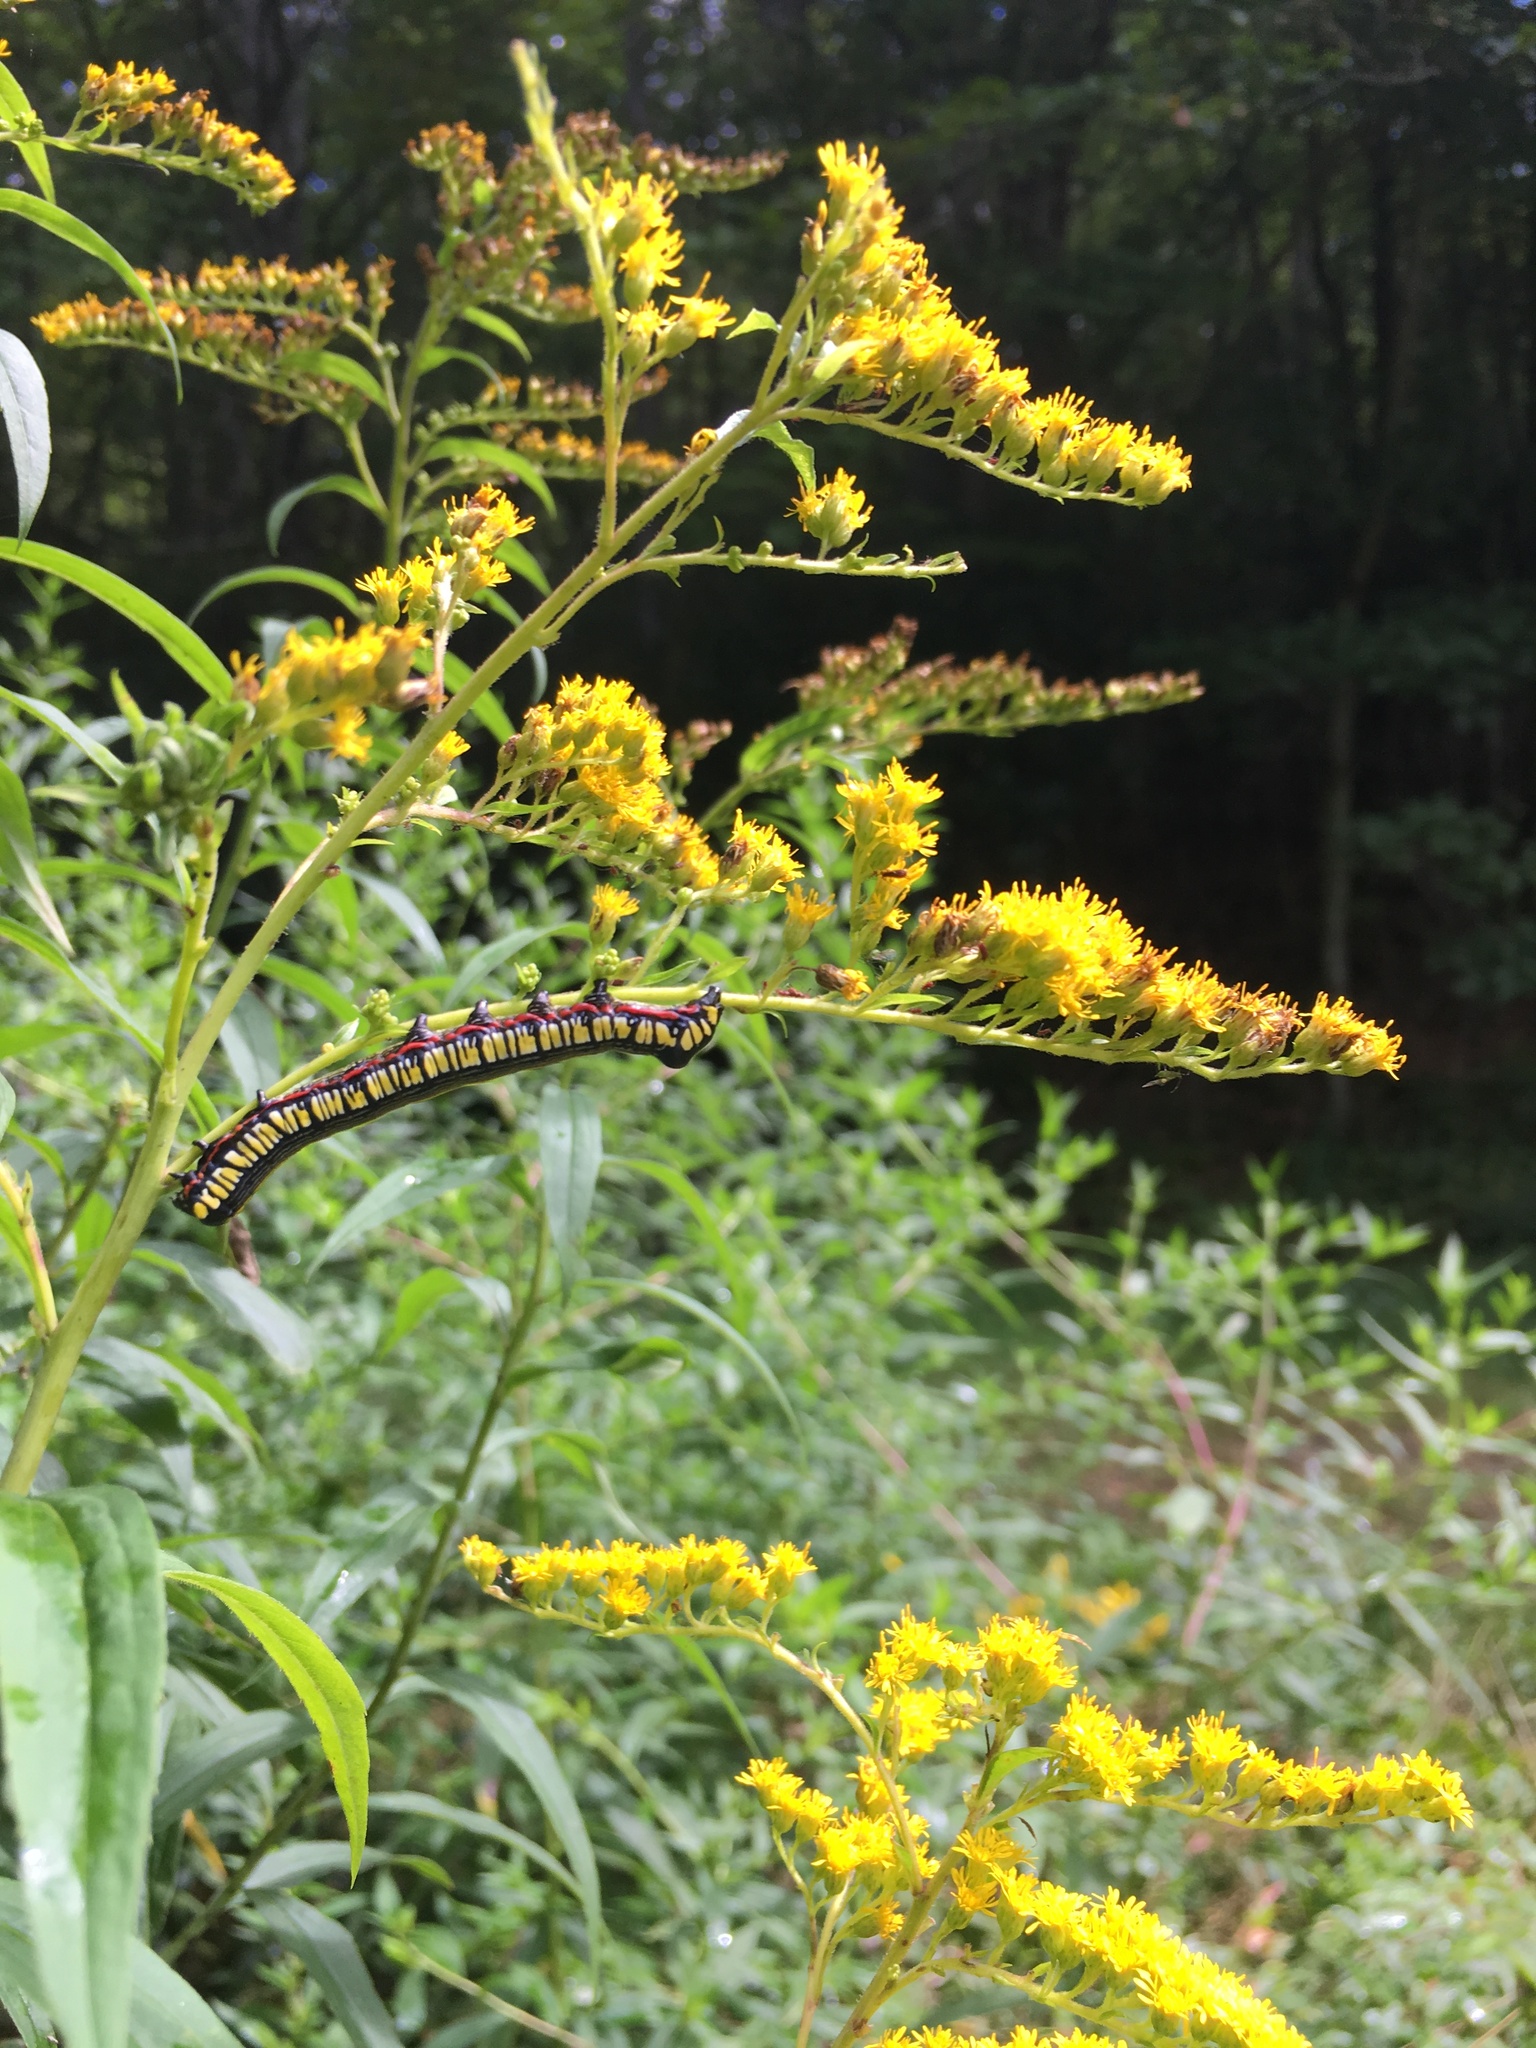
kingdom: Animalia
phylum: Arthropoda
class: Insecta
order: Lepidoptera
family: Noctuidae
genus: Cucullia
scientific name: Cucullia convexipennis
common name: Brown-hooded owlet
